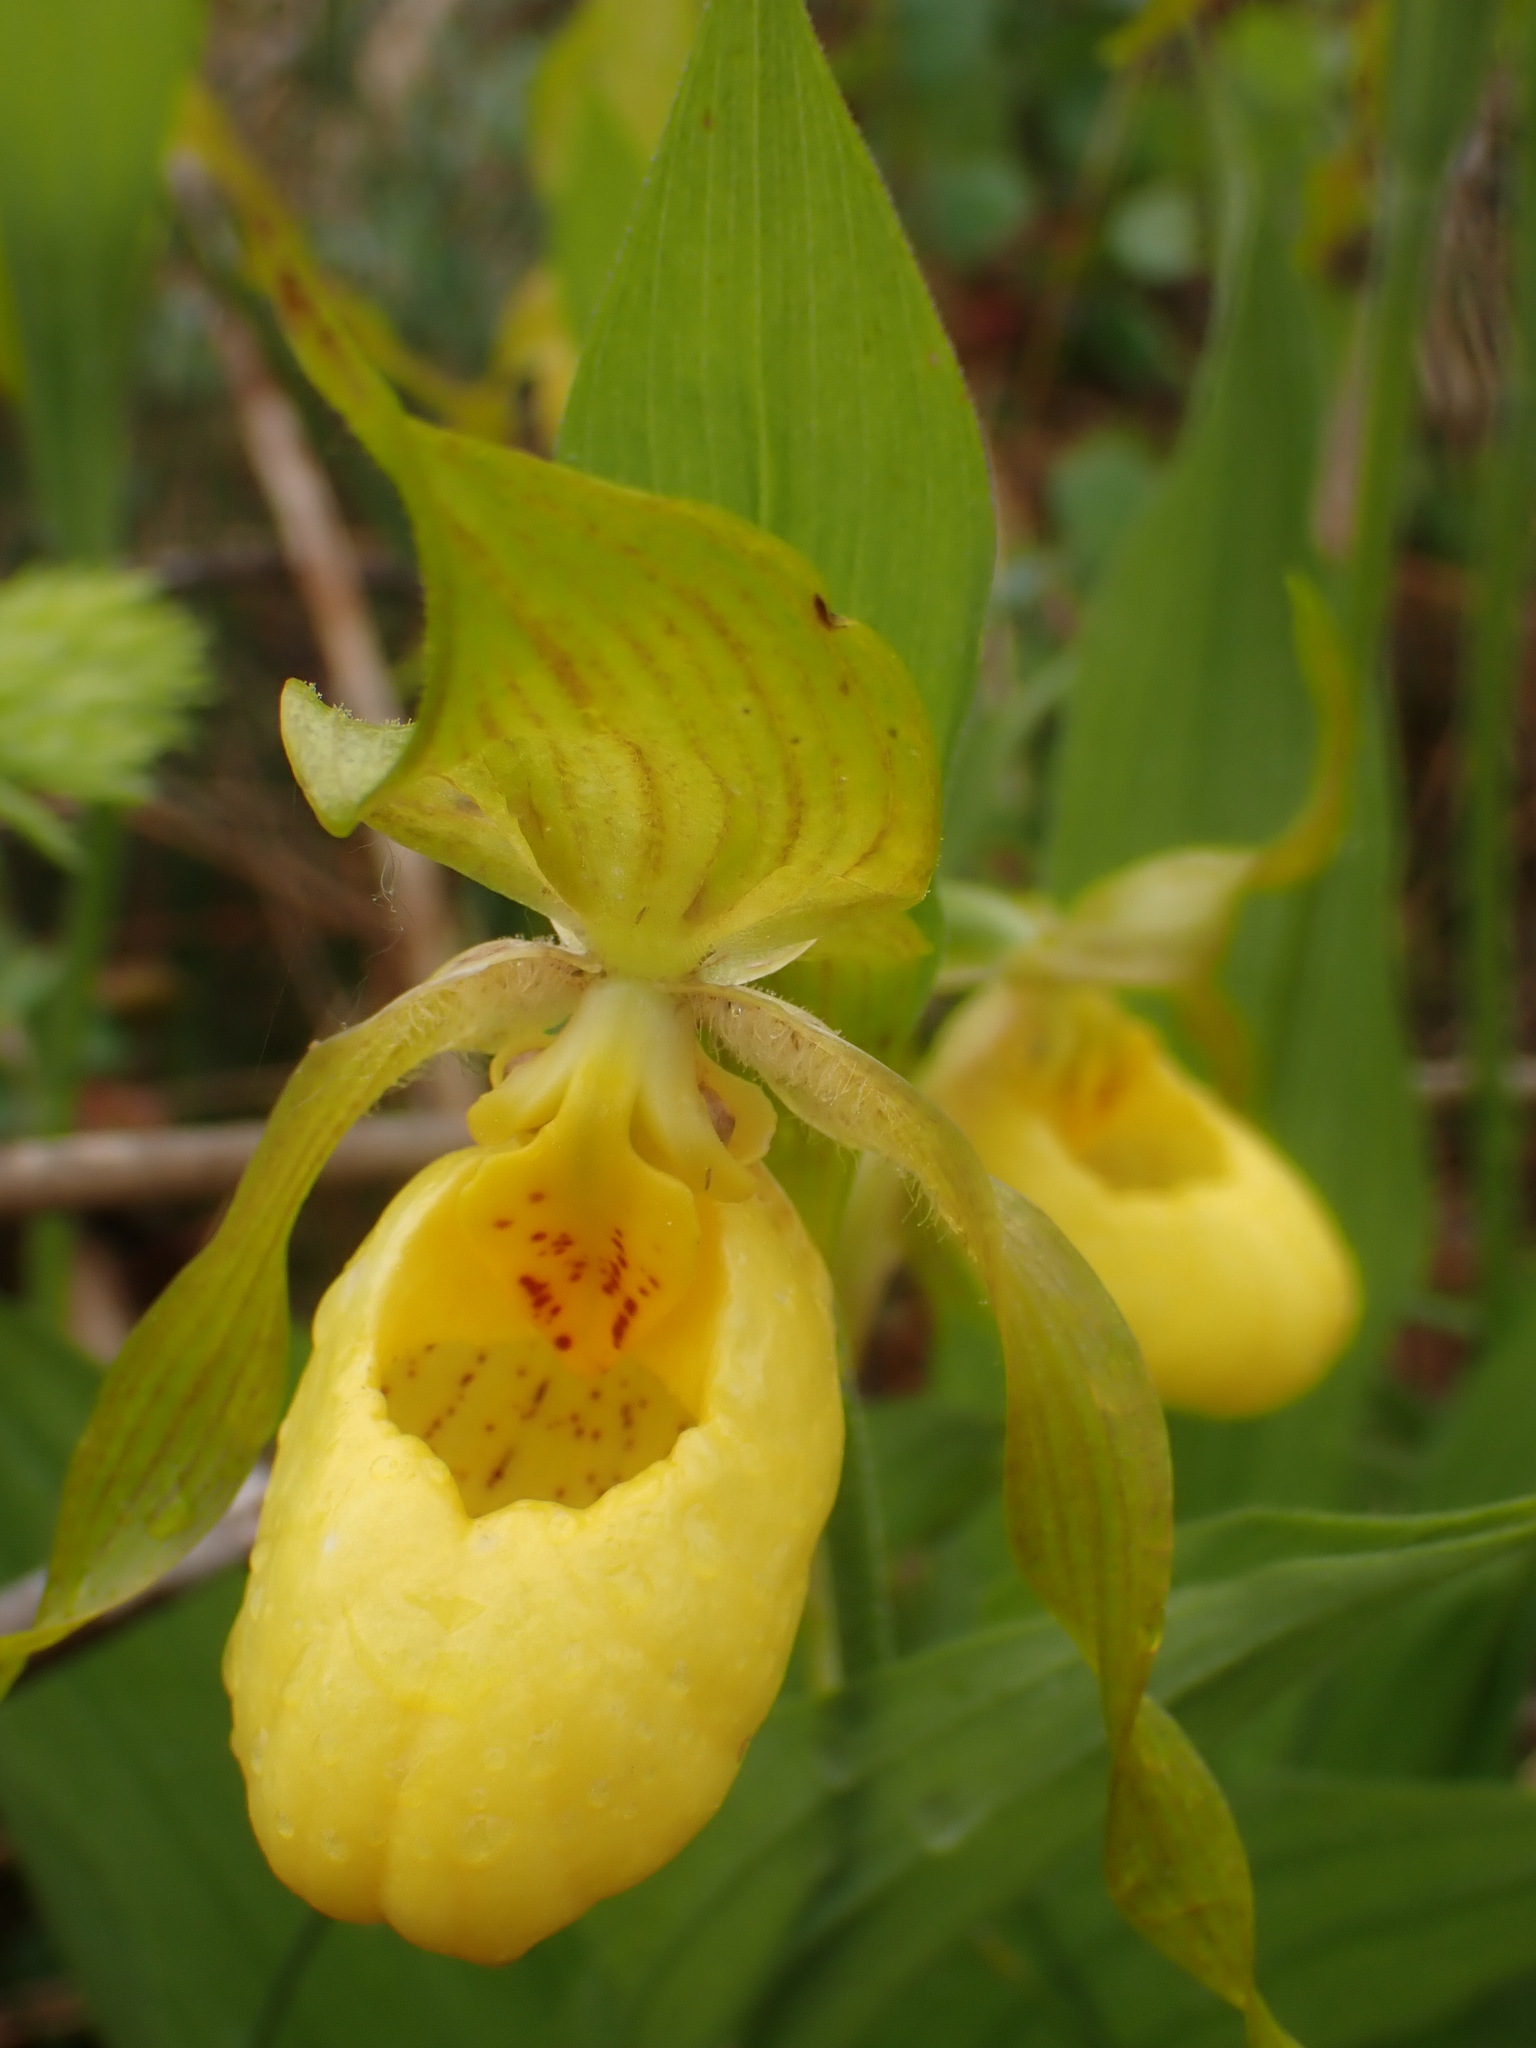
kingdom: Plantae
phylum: Tracheophyta
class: Liliopsida
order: Asparagales
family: Orchidaceae
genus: Cypripedium
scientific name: Cypripedium parviflorum
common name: American yellow lady's-slipper
